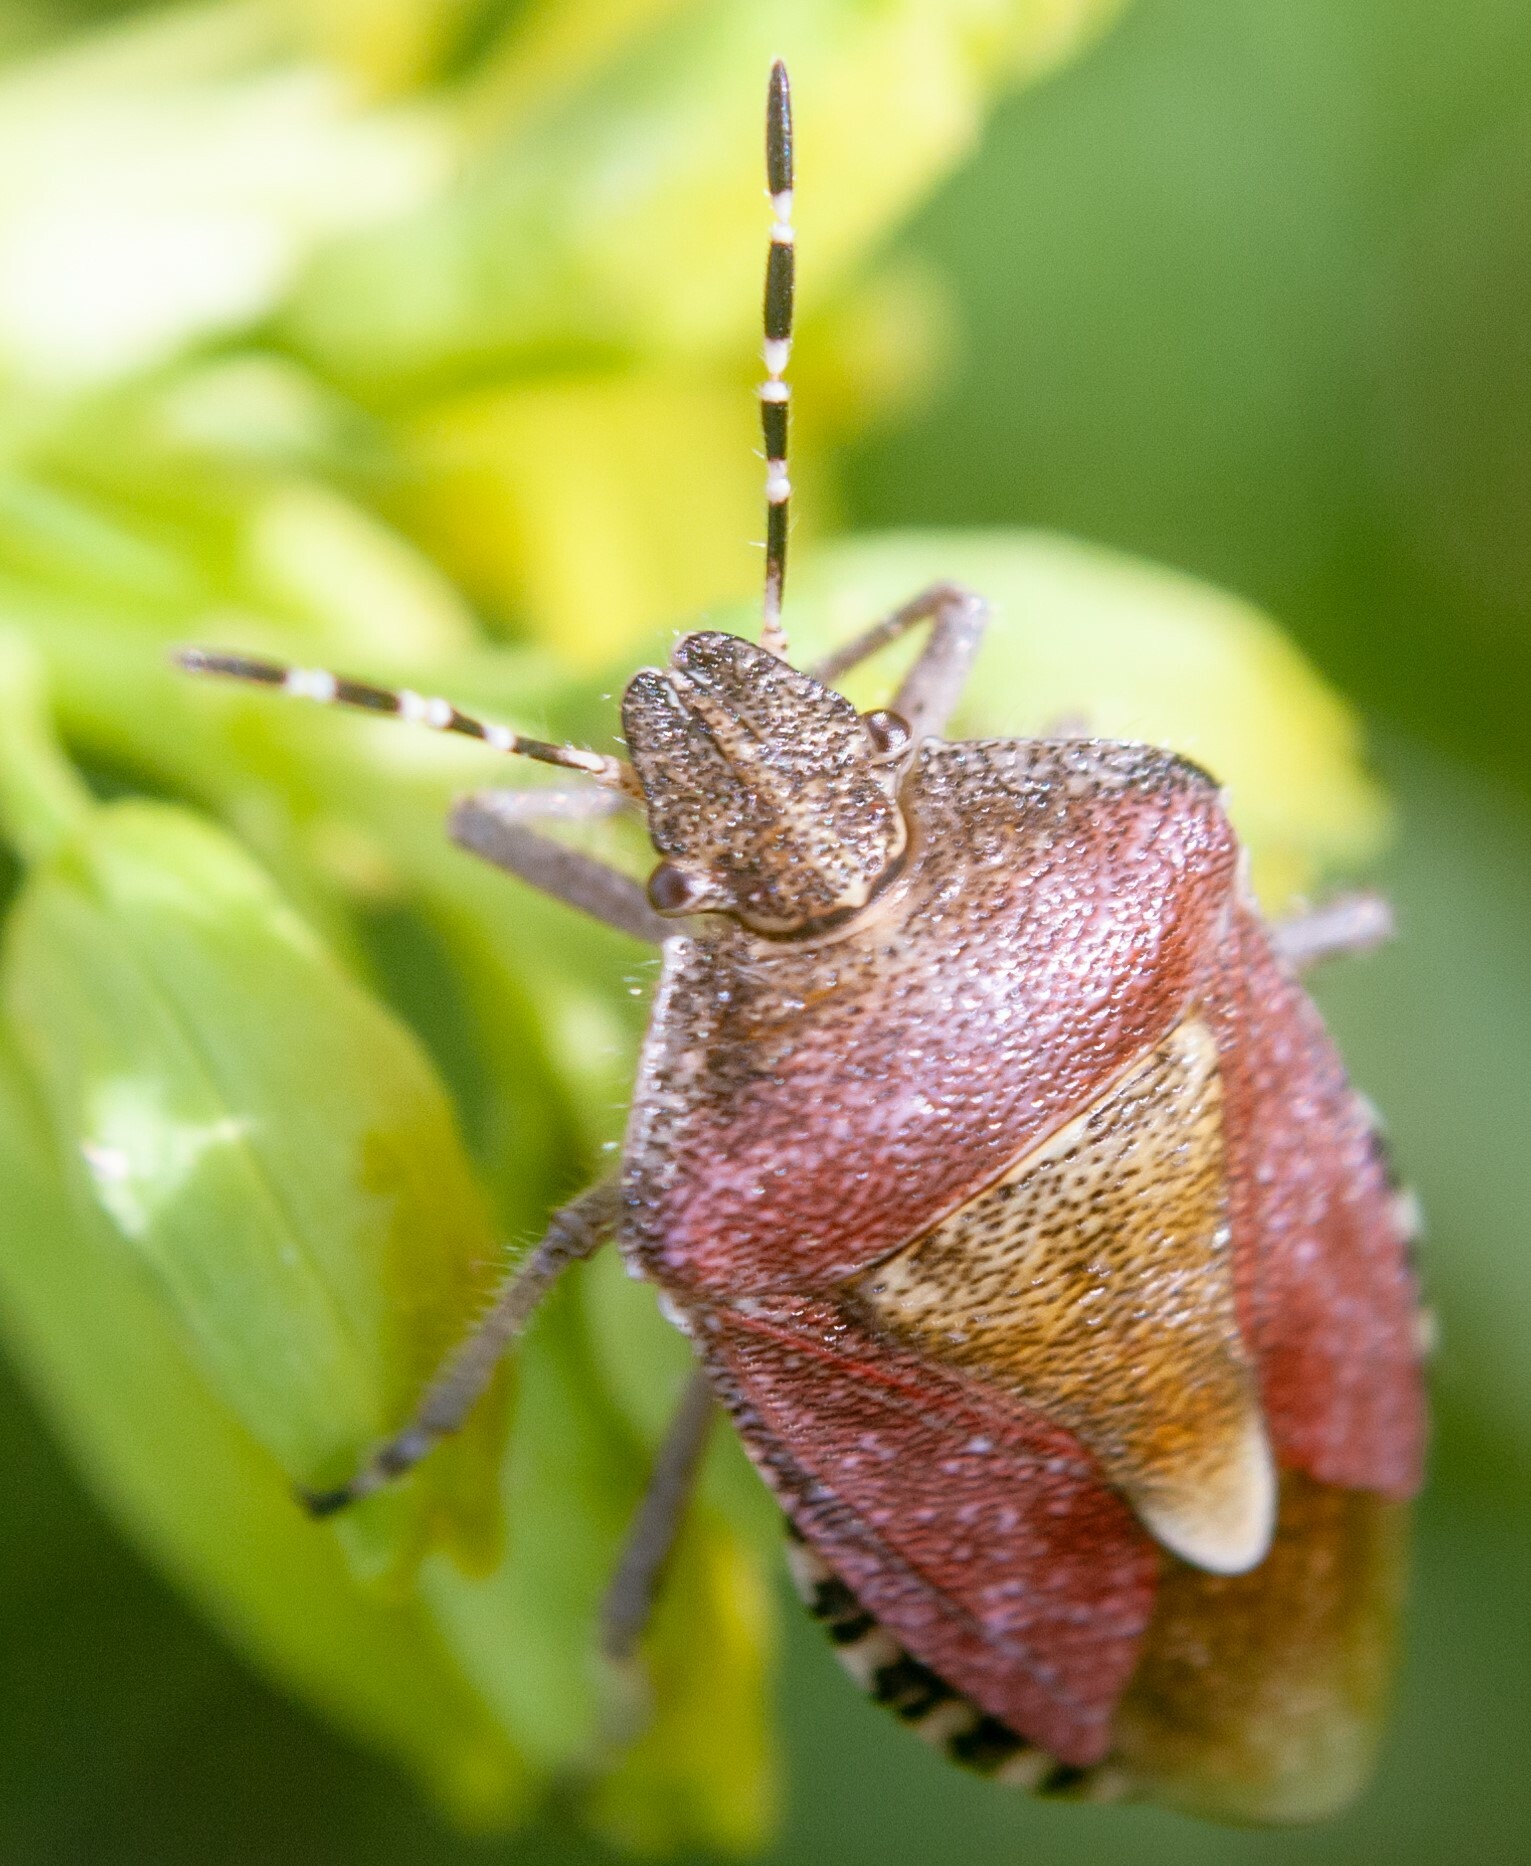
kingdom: Animalia
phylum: Arthropoda
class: Insecta
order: Hemiptera
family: Pentatomidae
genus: Dolycoris
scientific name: Dolycoris baccarum
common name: Sloe bug
